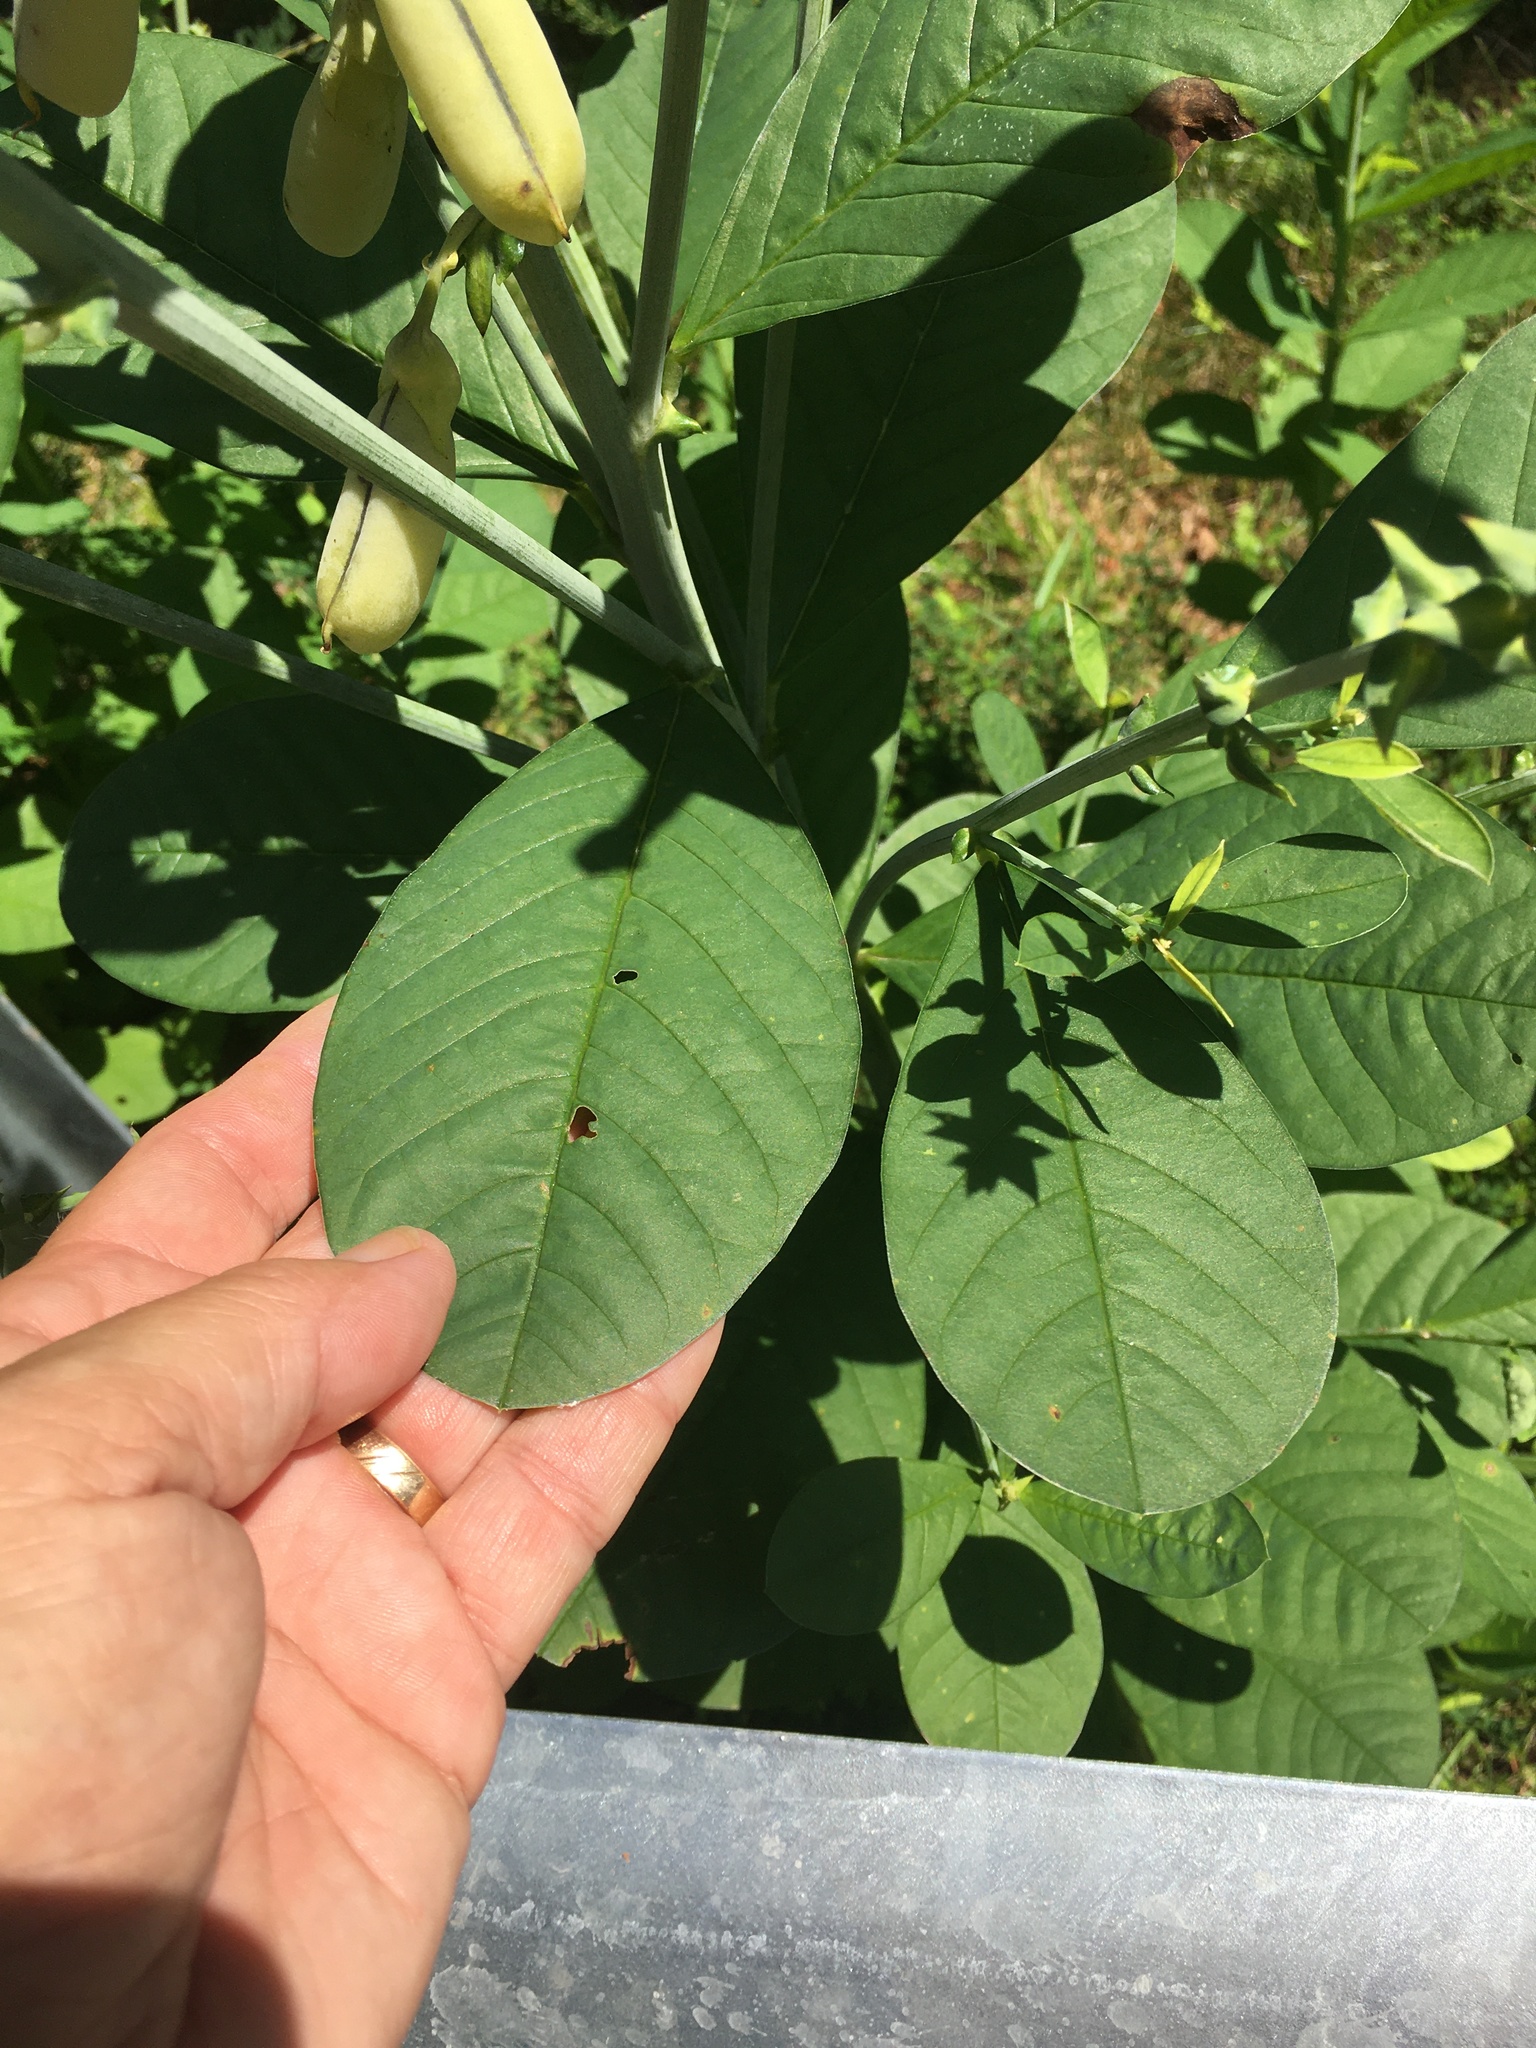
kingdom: Plantae
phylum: Tracheophyta
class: Magnoliopsida
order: Fabales
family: Fabaceae
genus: Crotalaria
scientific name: Crotalaria spectabilis
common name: Showy rattlebox
